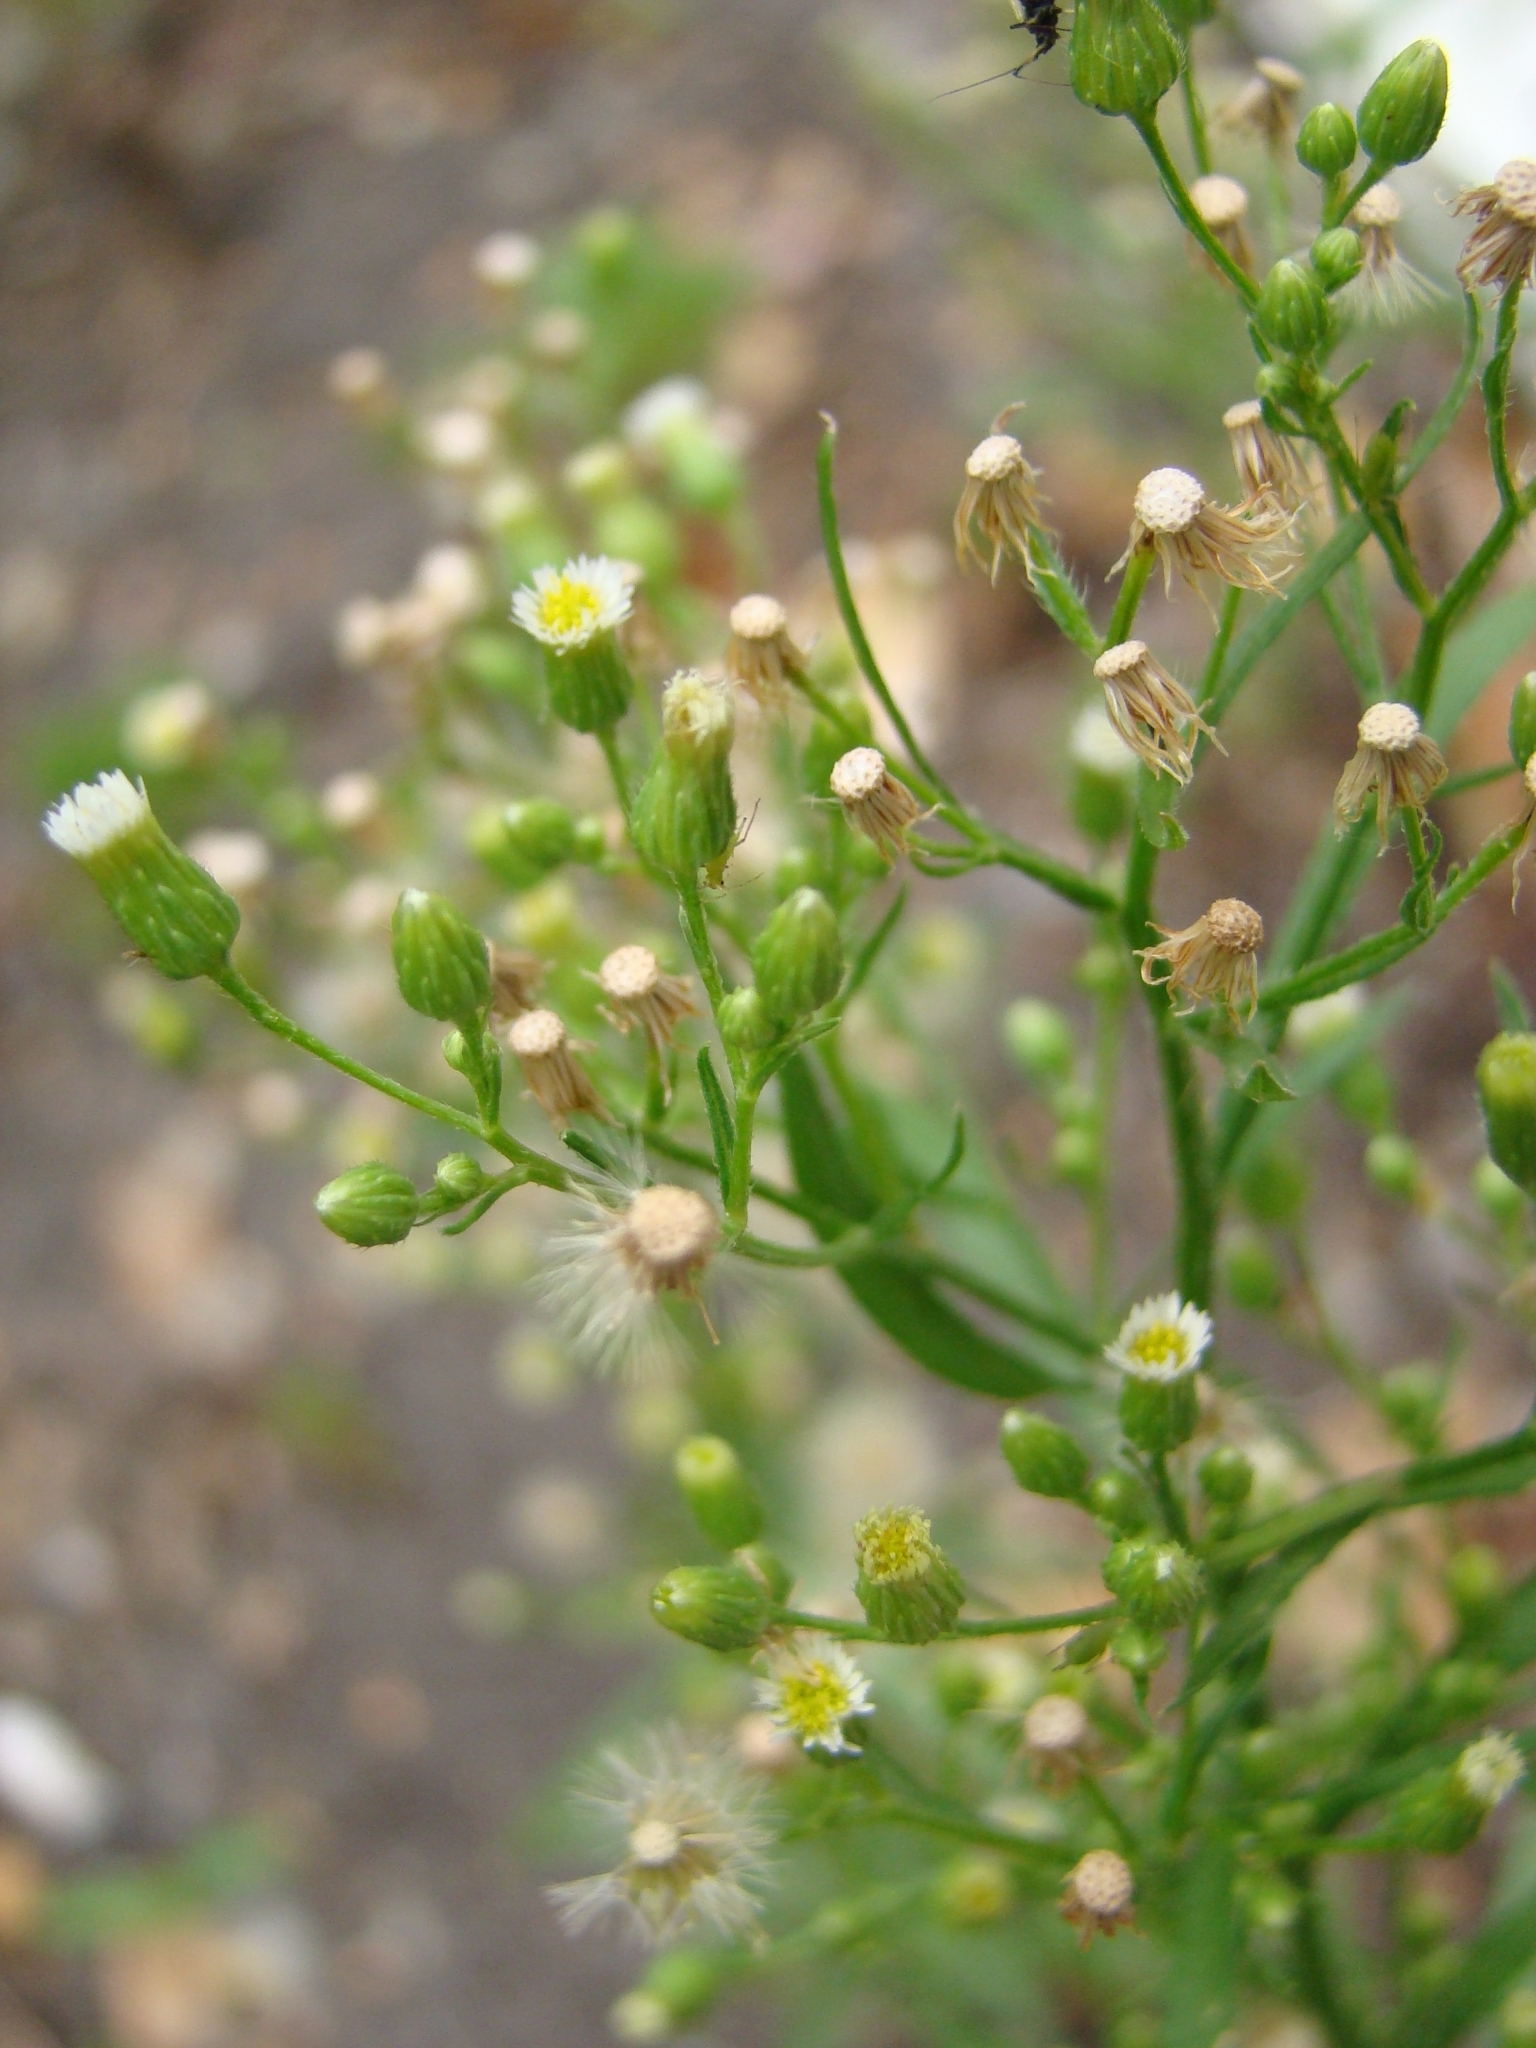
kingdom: Plantae
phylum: Tracheophyta
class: Magnoliopsida
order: Asterales
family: Asteraceae
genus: Erigeron
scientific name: Erigeron canadensis
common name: Canadian fleabane
